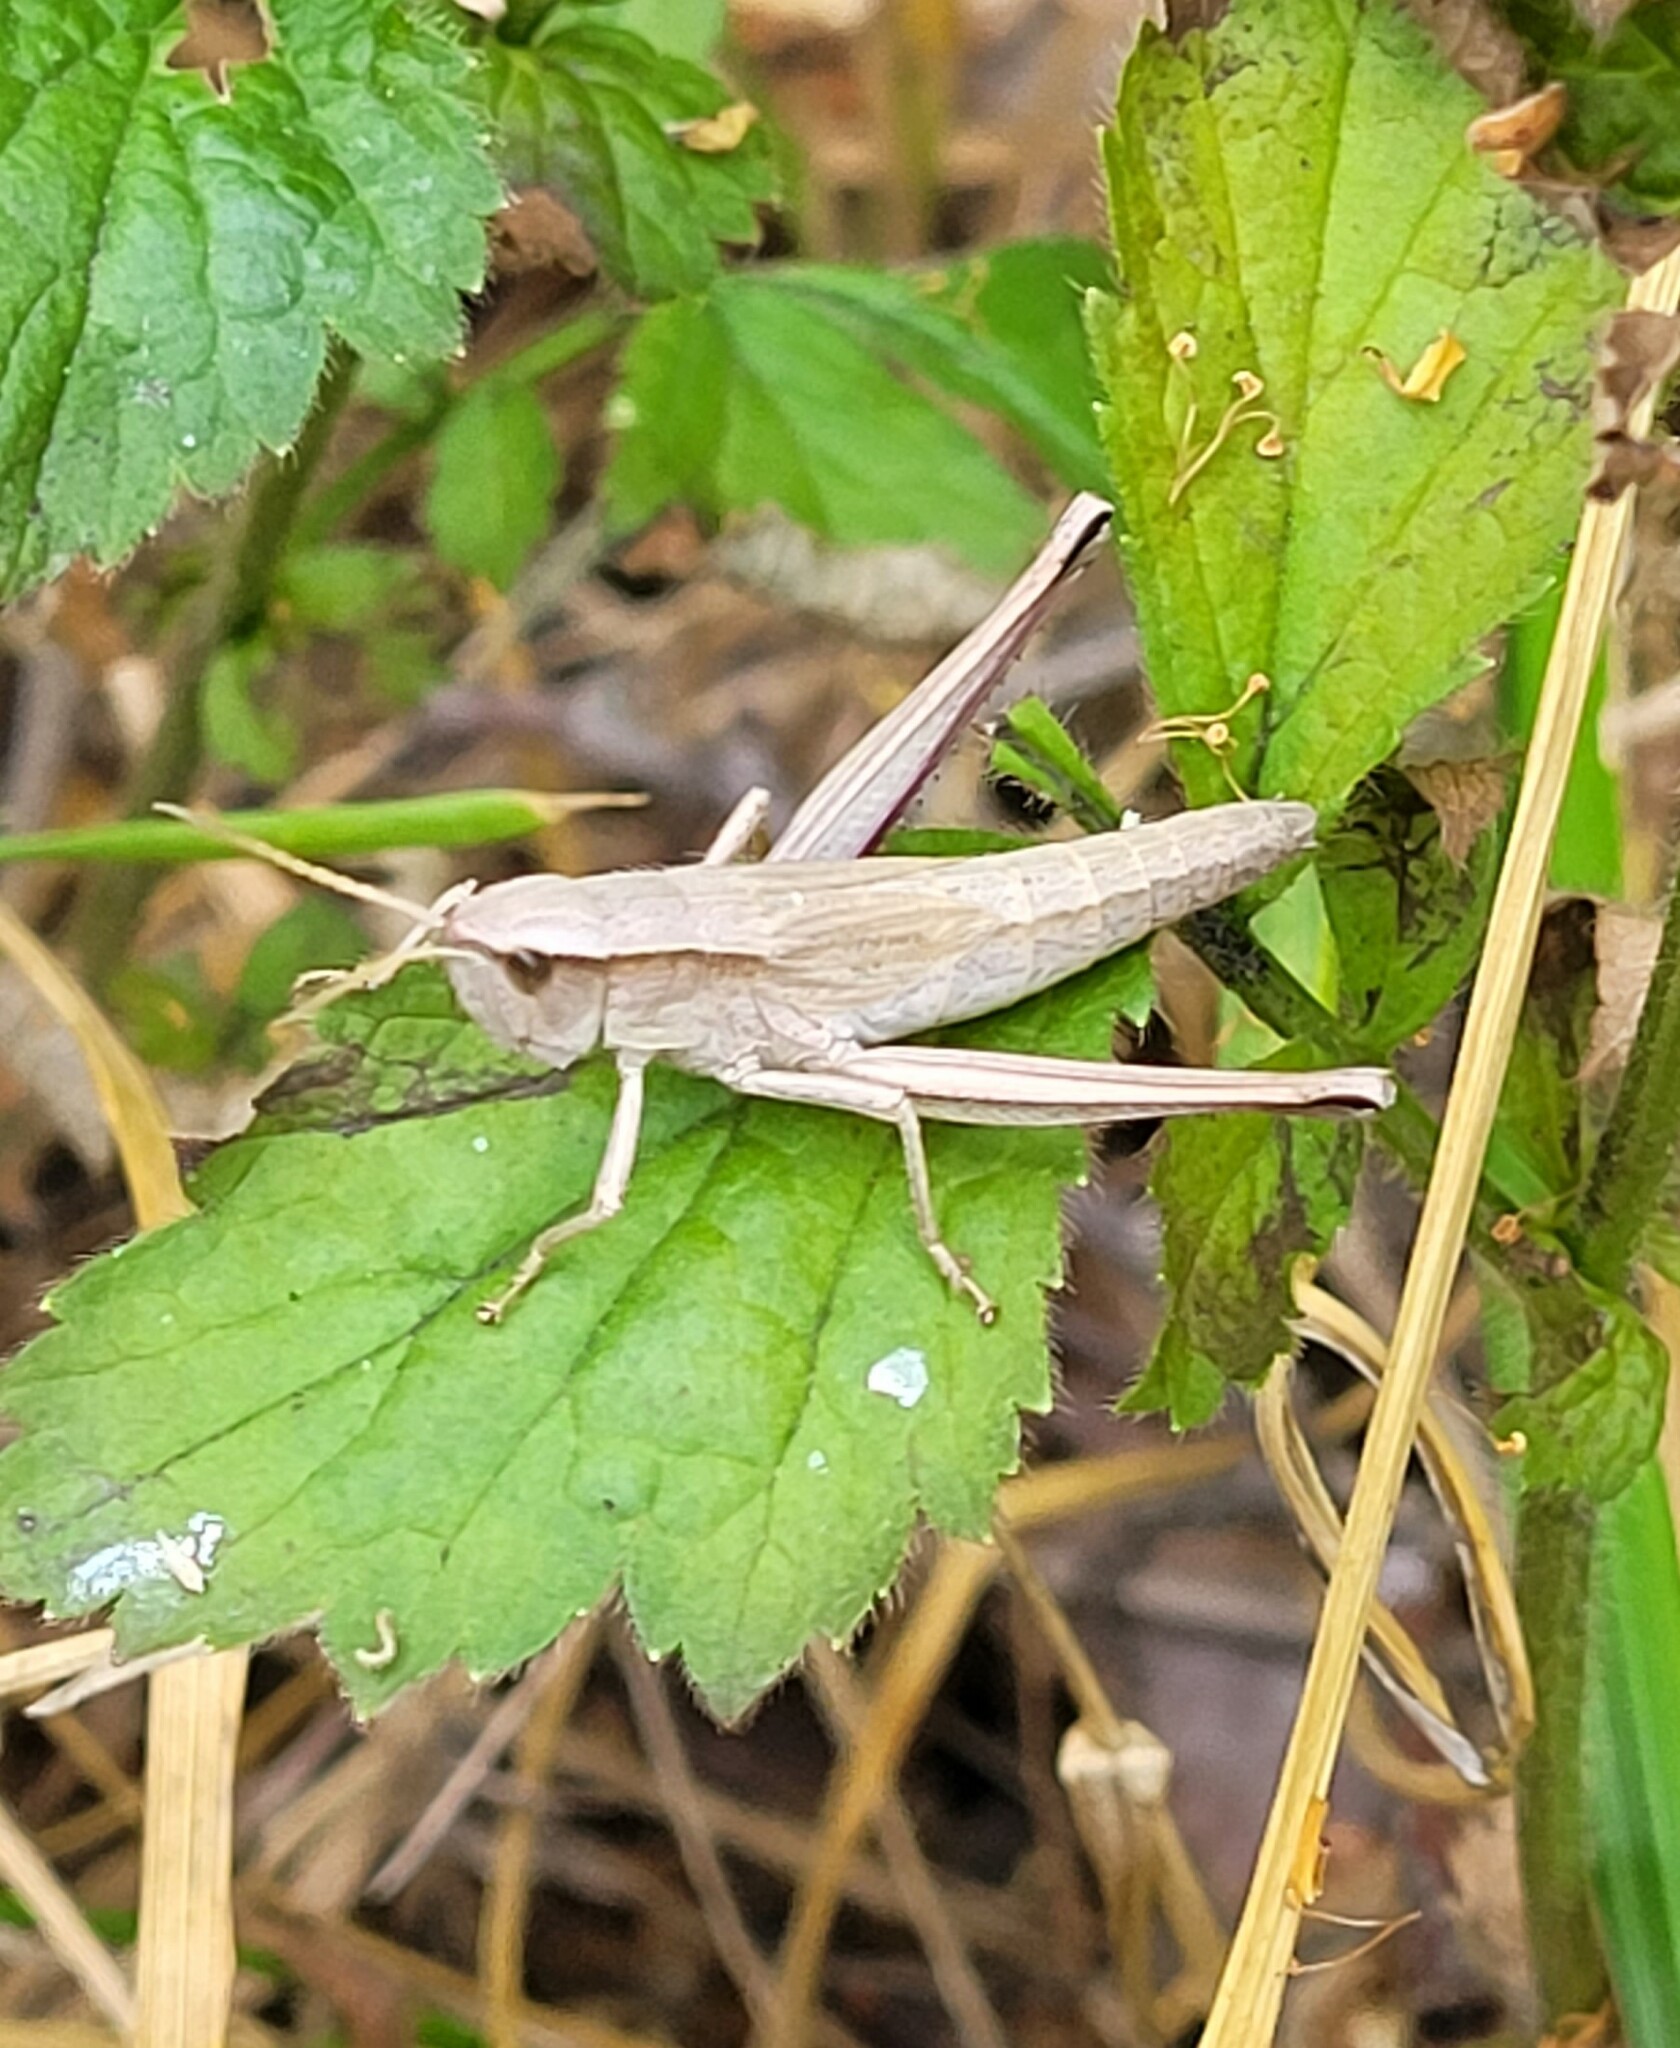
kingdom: Animalia
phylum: Arthropoda
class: Insecta
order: Orthoptera
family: Acrididae
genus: Chrysochraon
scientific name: Chrysochraon dispar
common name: Large gold grasshopper
